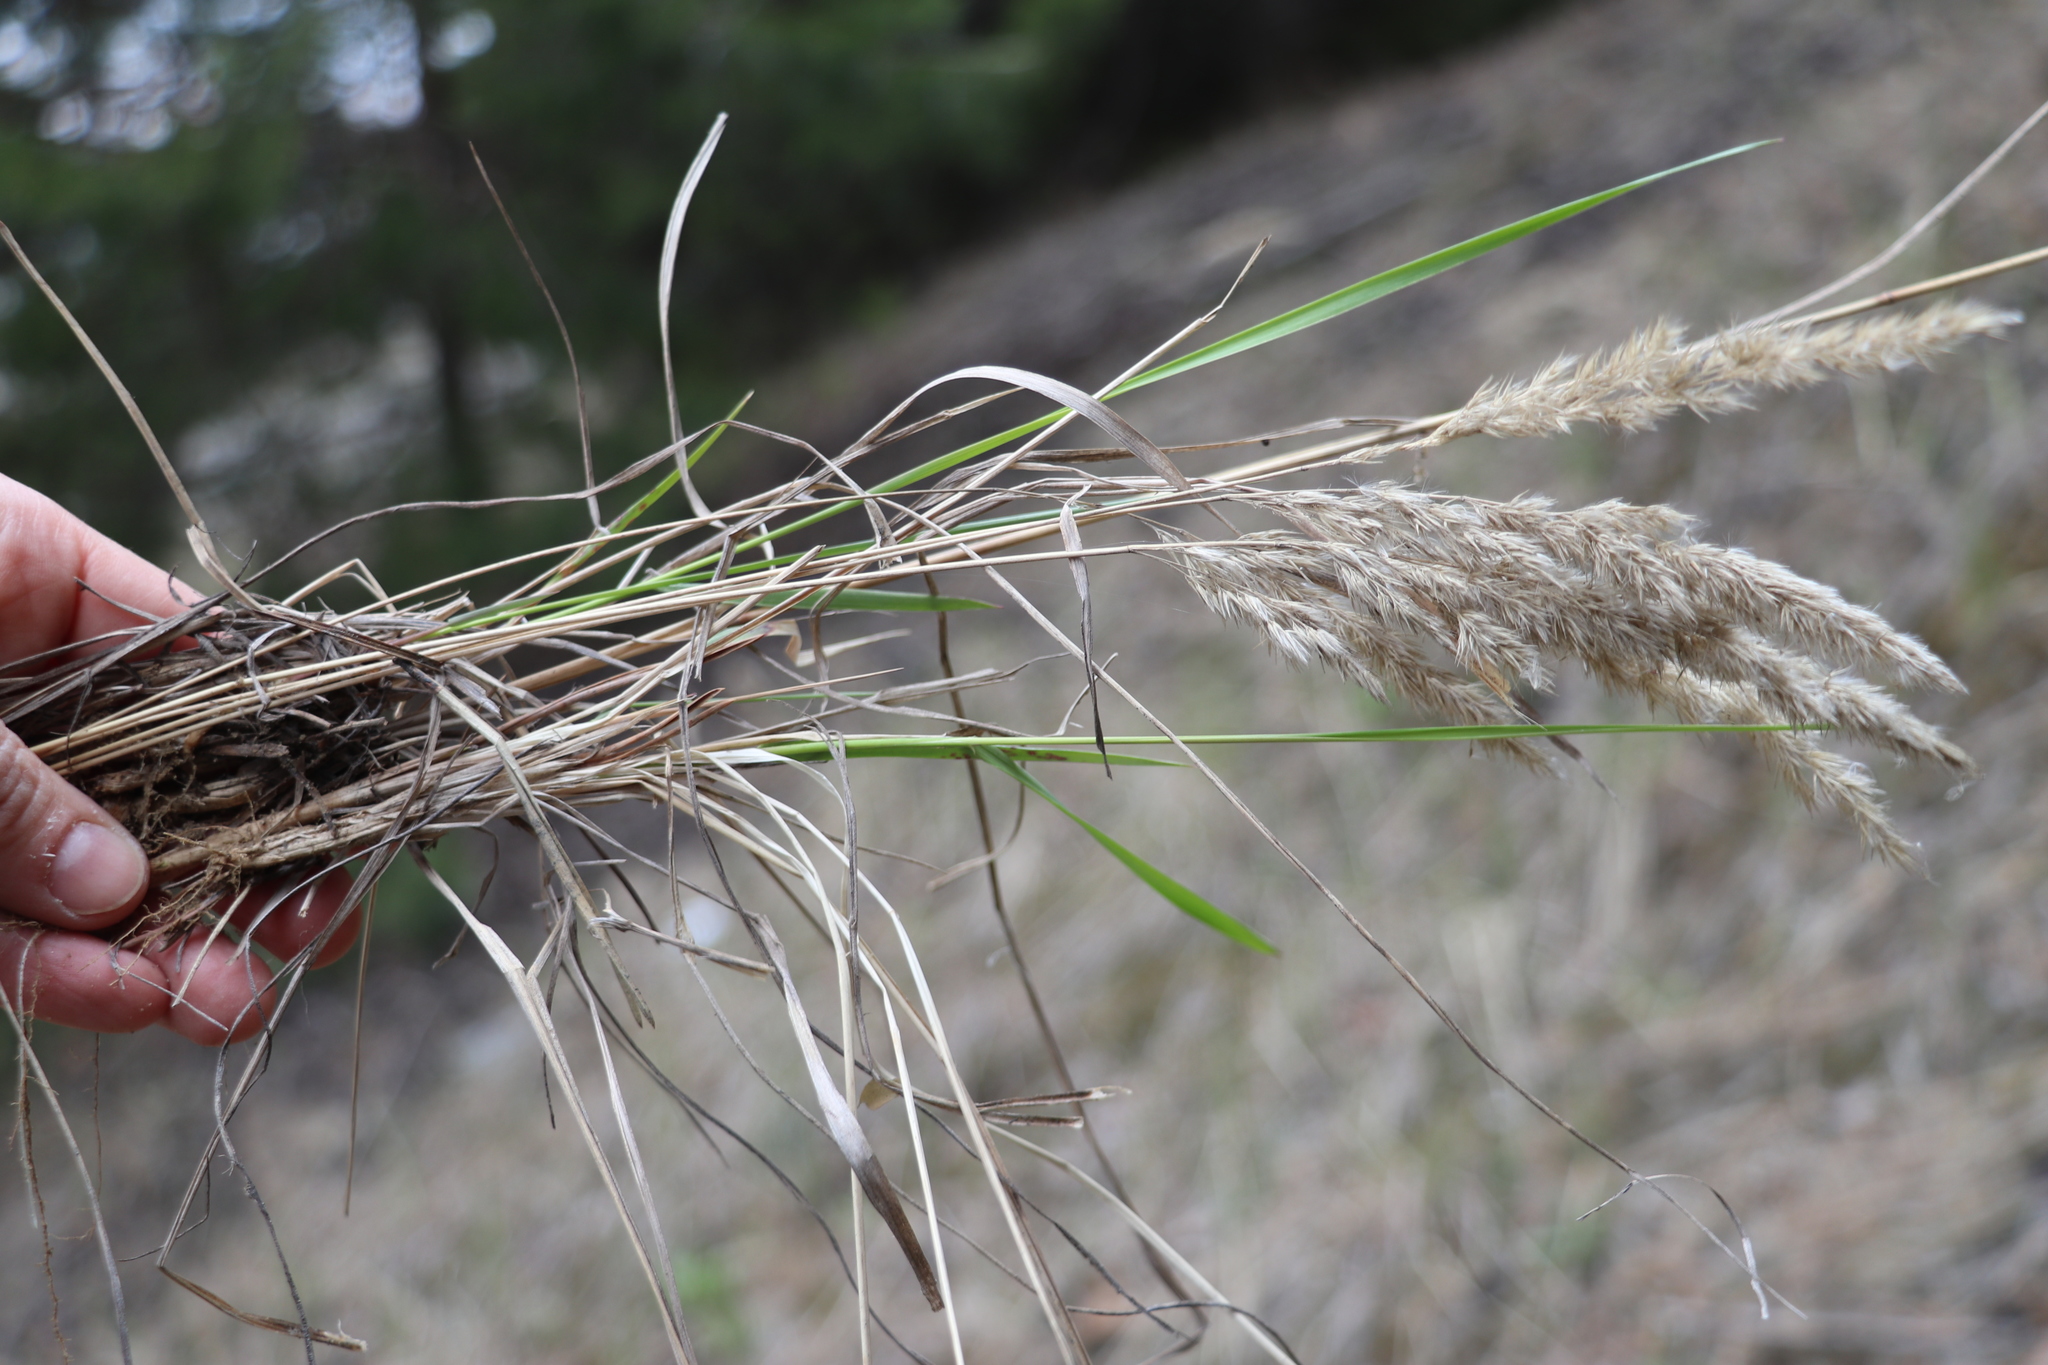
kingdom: Plantae
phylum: Tracheophyta
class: Liliopsida
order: Poales
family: Poaceae
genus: Calamagrostis
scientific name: Calamagrostis epigejos
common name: Wood small-reed
